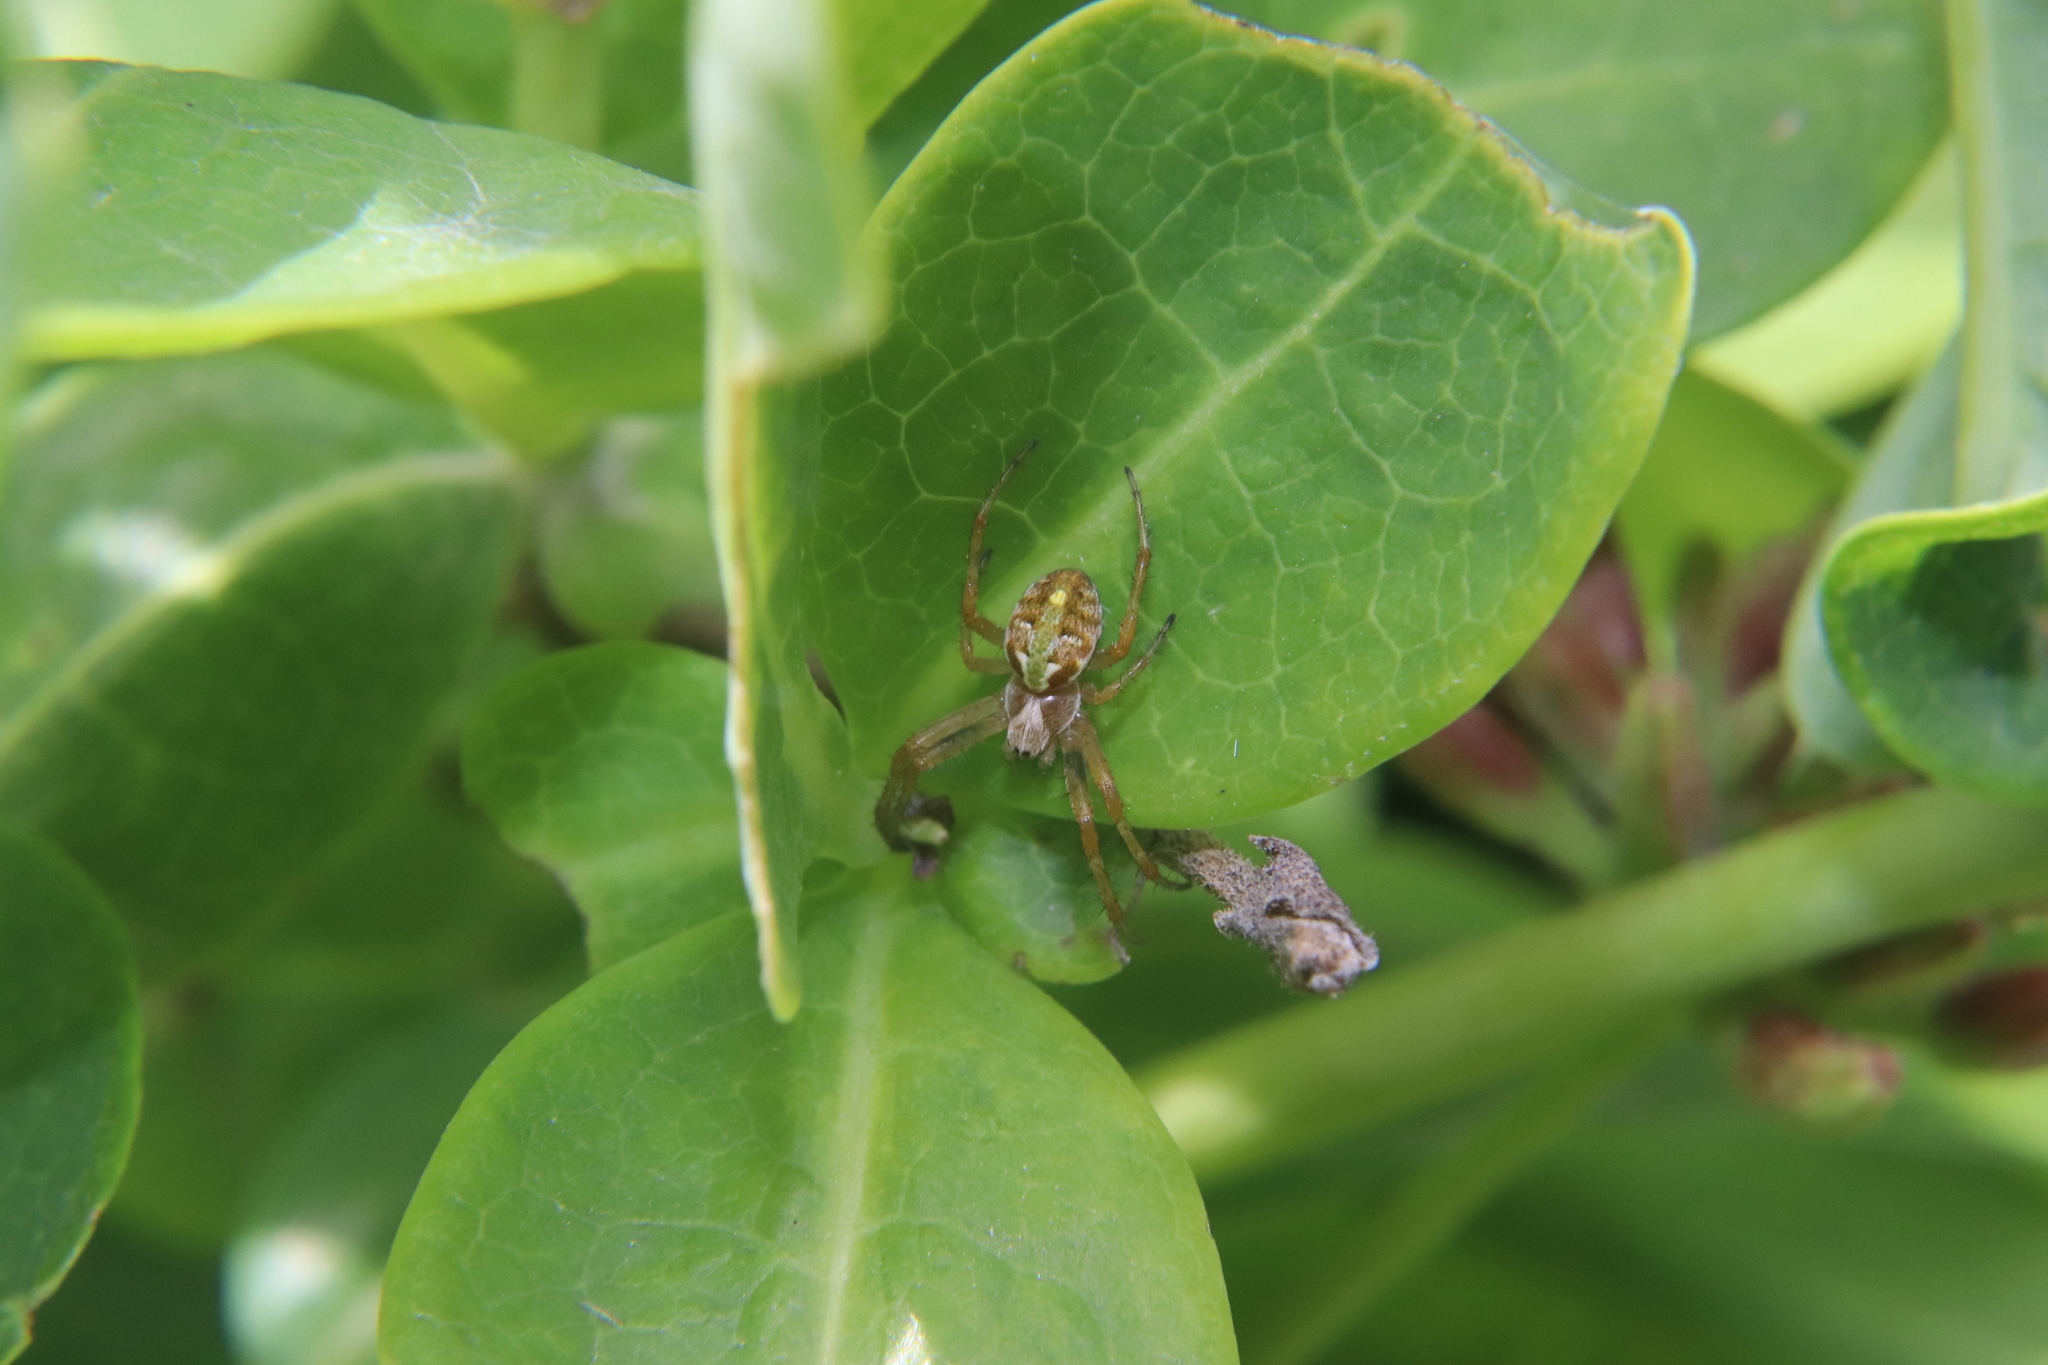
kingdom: Animalia
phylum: Arthropoda
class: Arachnida
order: Araneae
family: Araneidae
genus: Novaranea
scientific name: Novaranea queribunda
